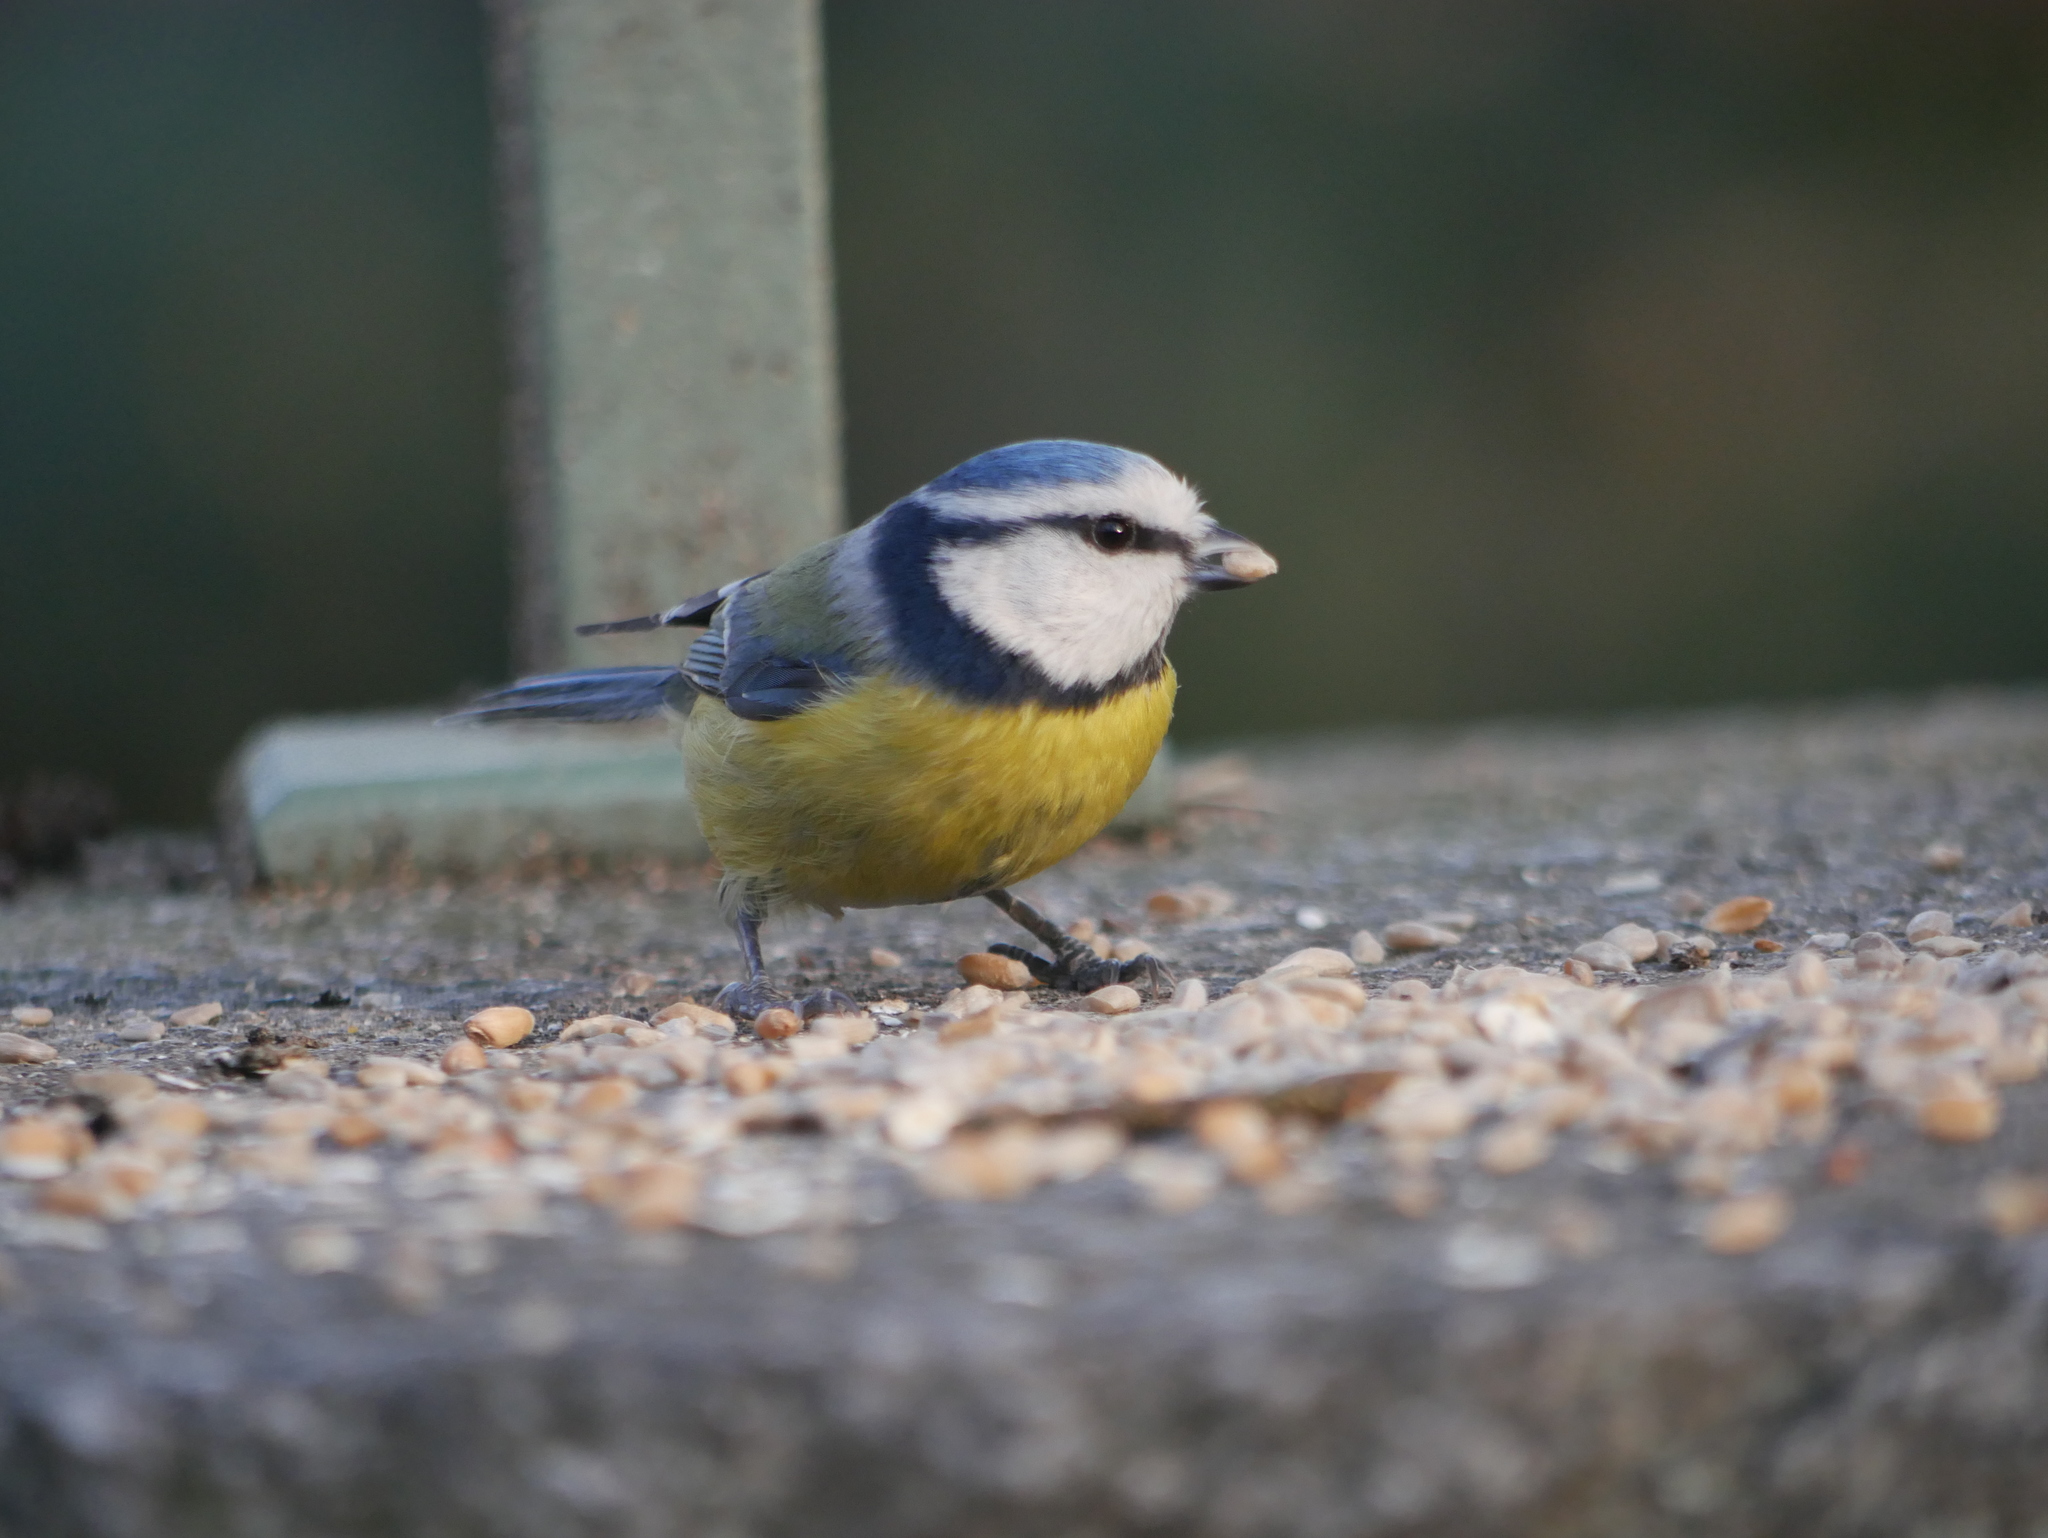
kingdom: Animalia
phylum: Chordata
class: Aves
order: Passeriformes
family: Paridae
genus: Cyanistes
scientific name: Cyanistes caeruleus
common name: Eurasian blue tit
